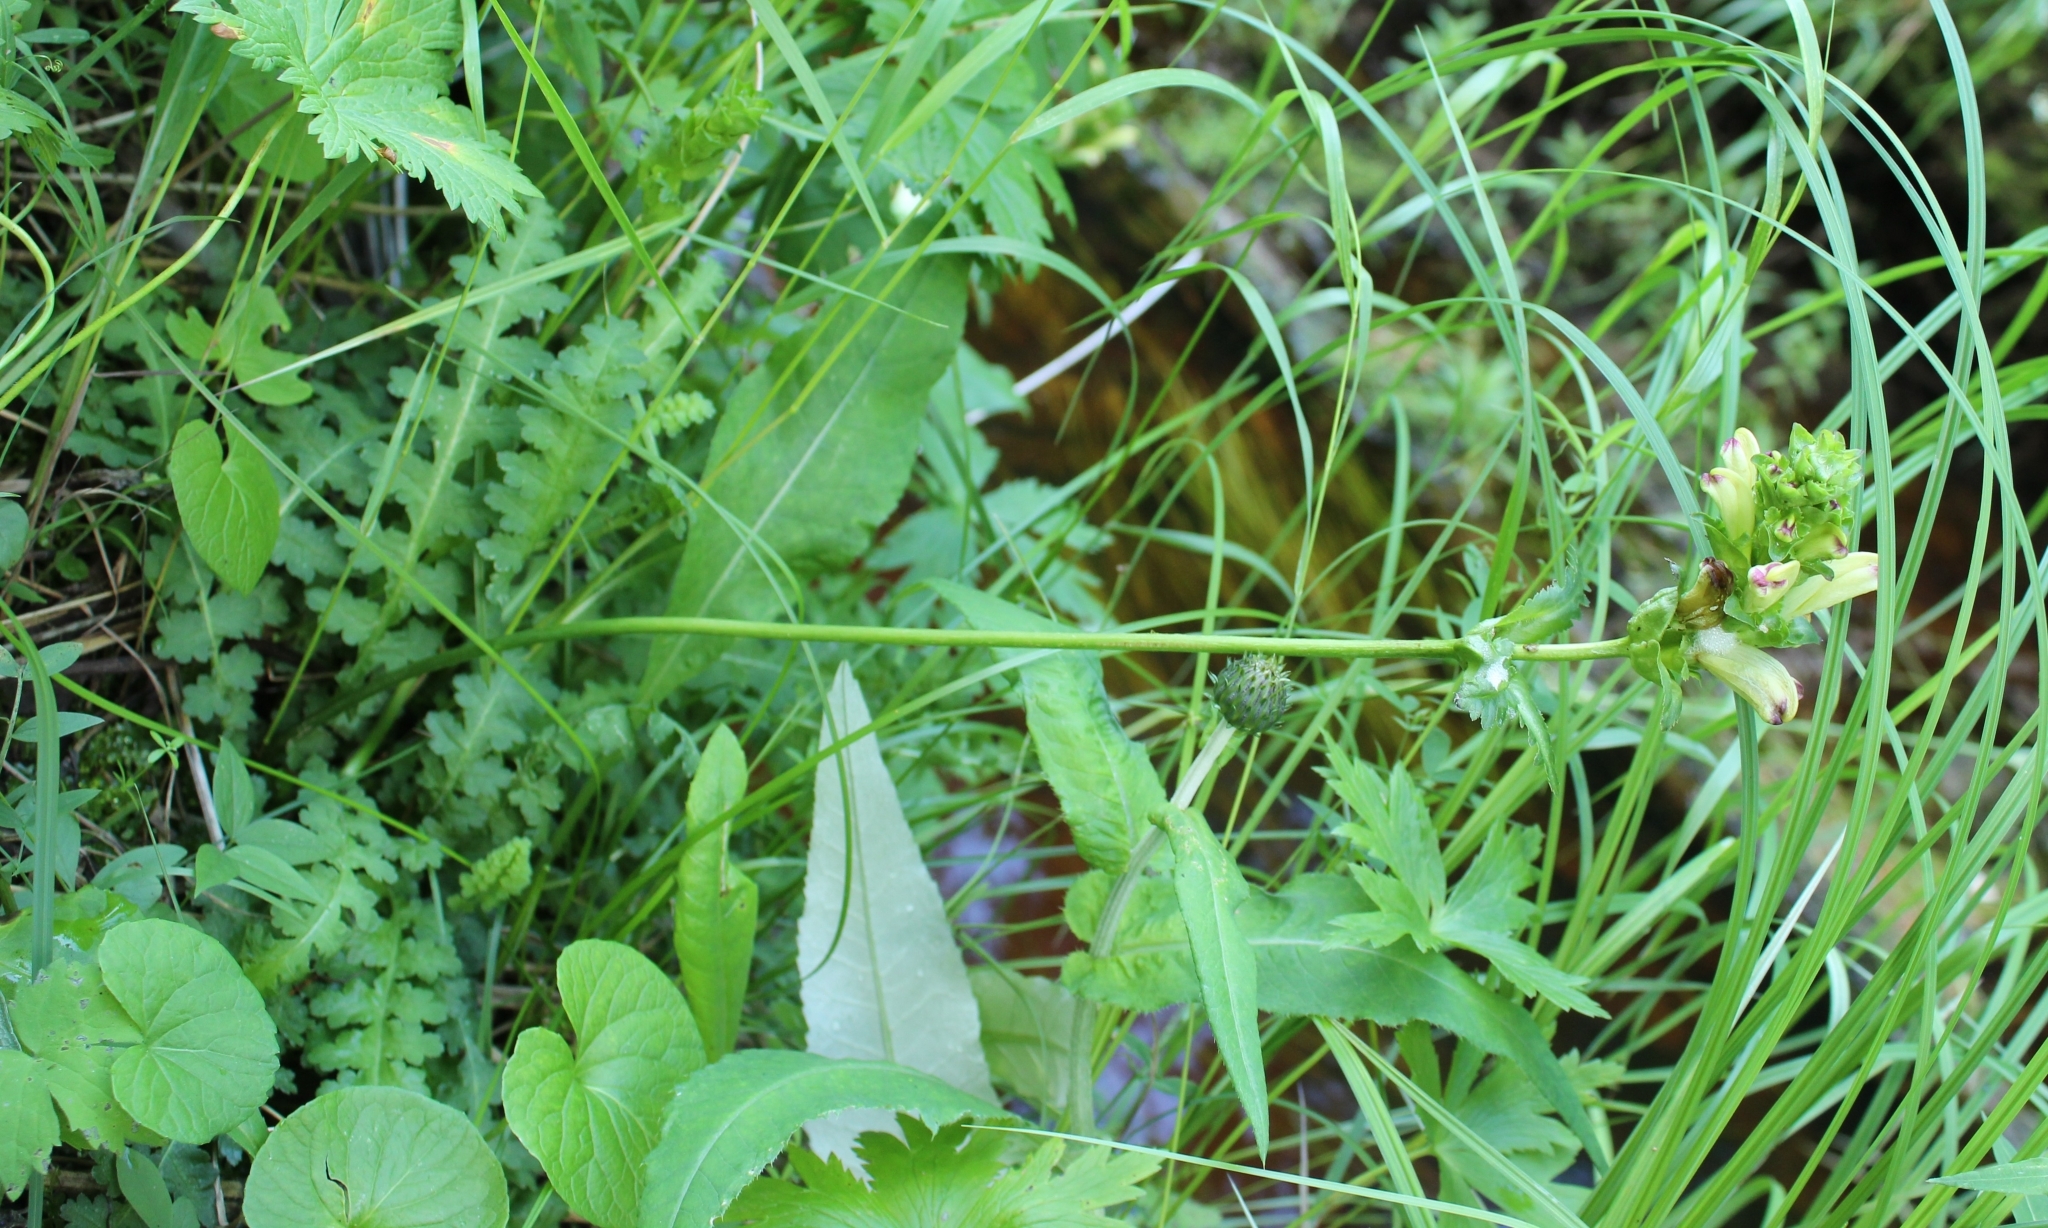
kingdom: Plantae
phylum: Tracheophyta
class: Magnoliopsida
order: Lamiales
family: Orobanchaceae
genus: Pedicularis
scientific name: Pedicularis sceptrum-carolinum
